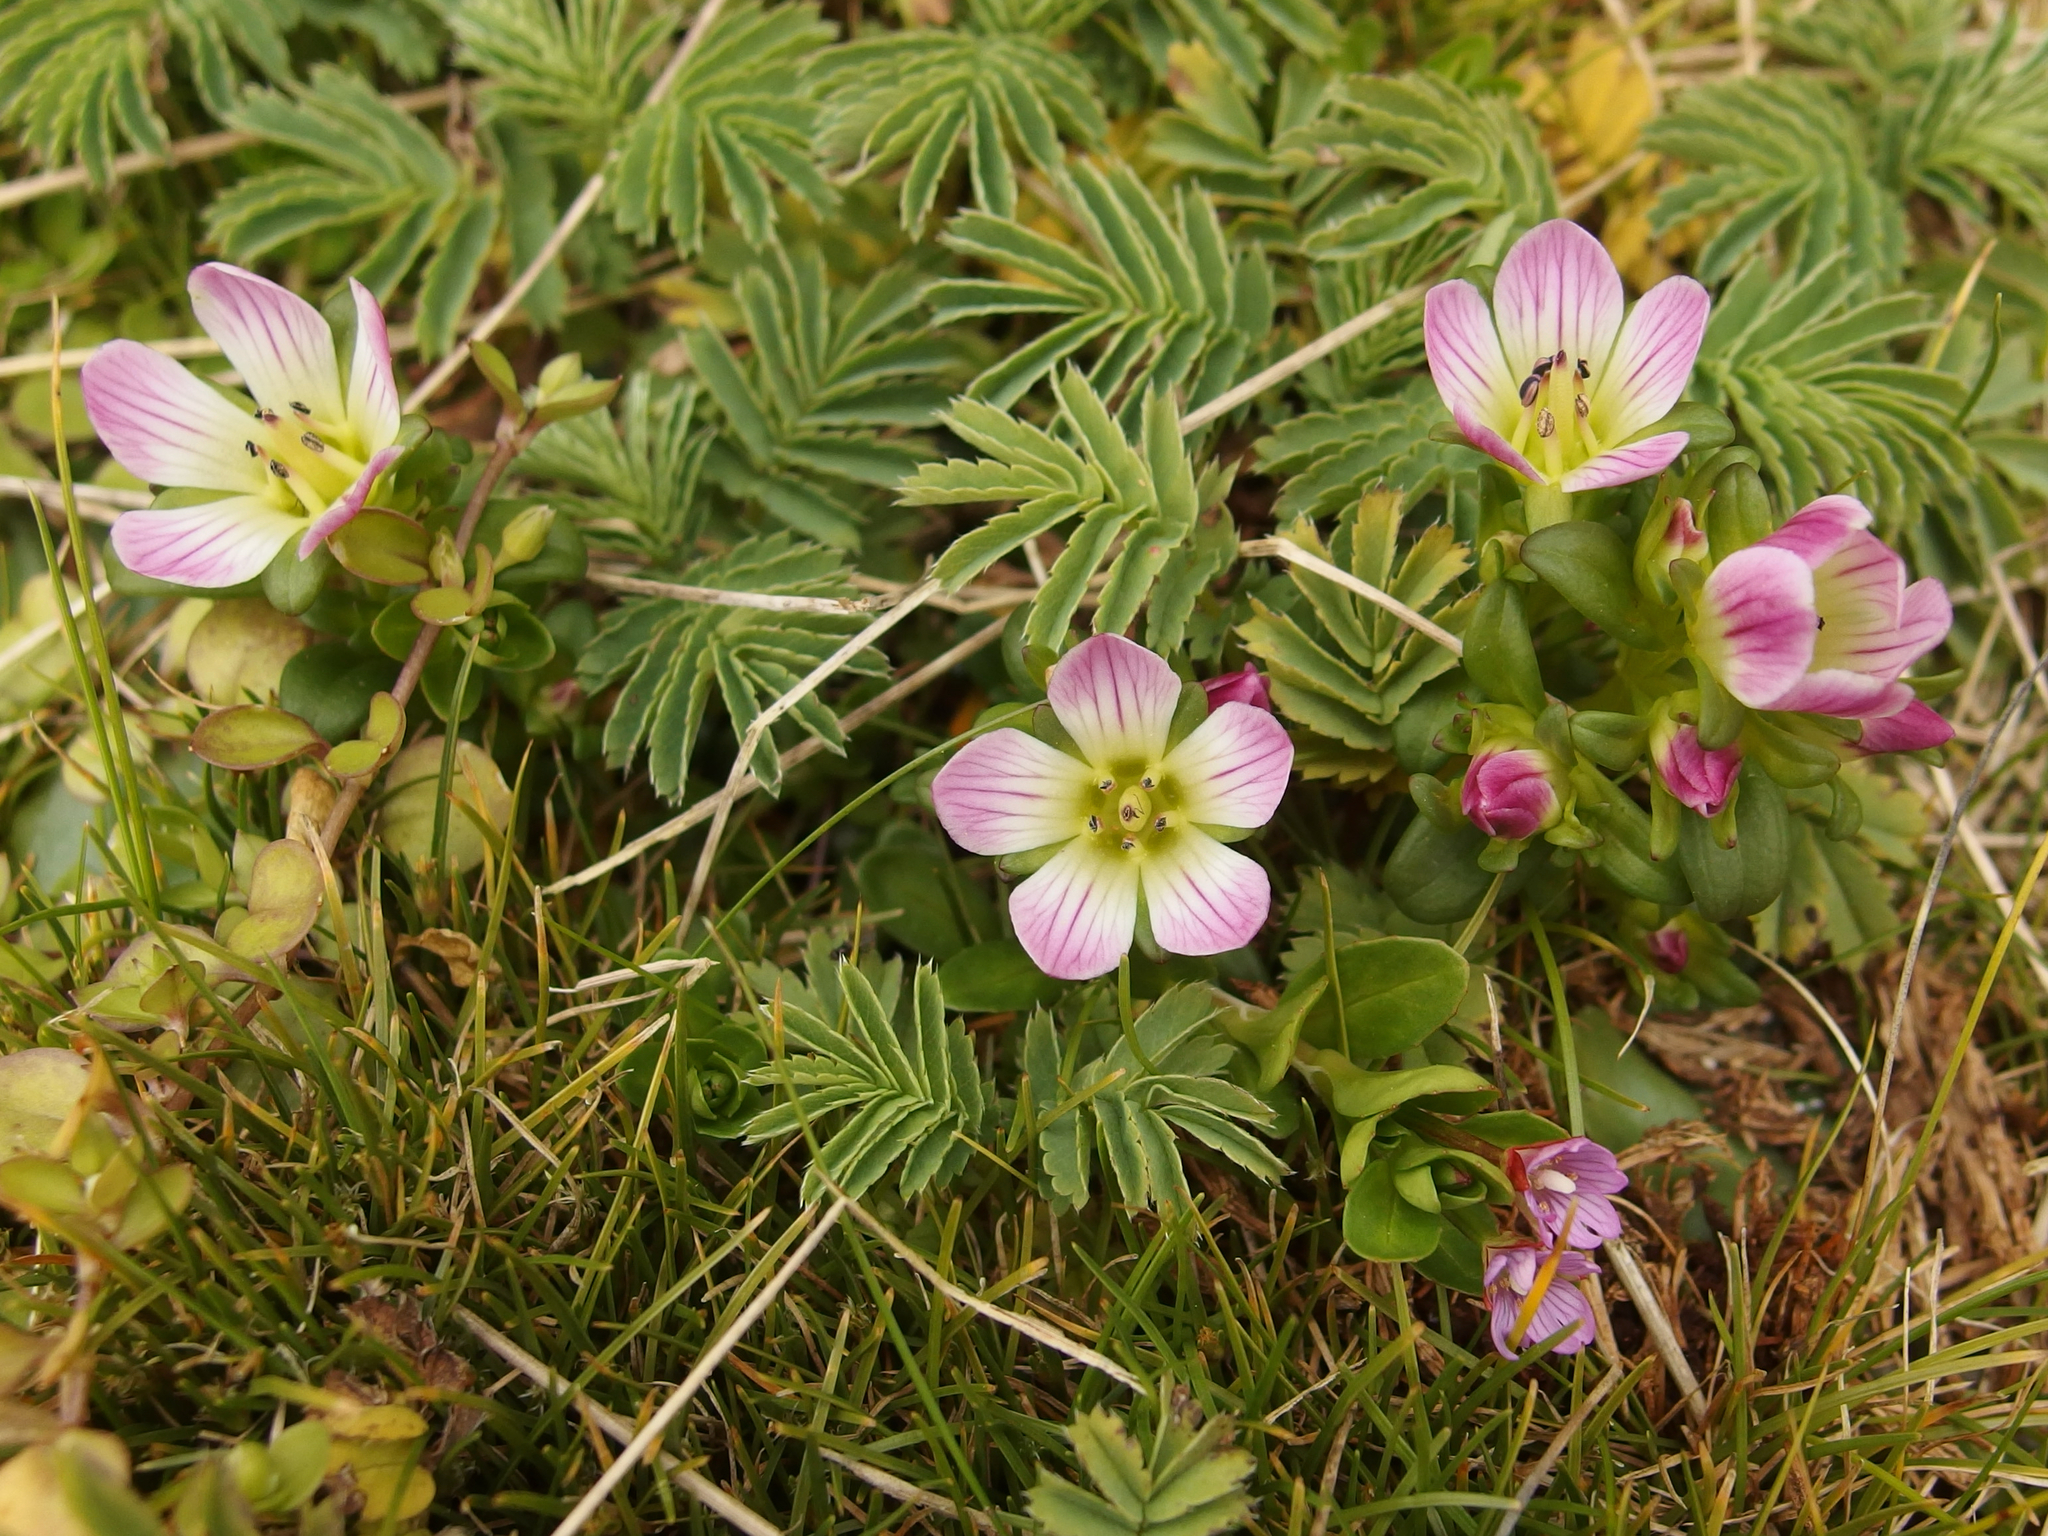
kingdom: Plantae
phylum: Tracheophyta
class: Magnoliopsida
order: Gentianales
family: Gentianaceae
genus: Gentianella
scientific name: Gentianella cerina
